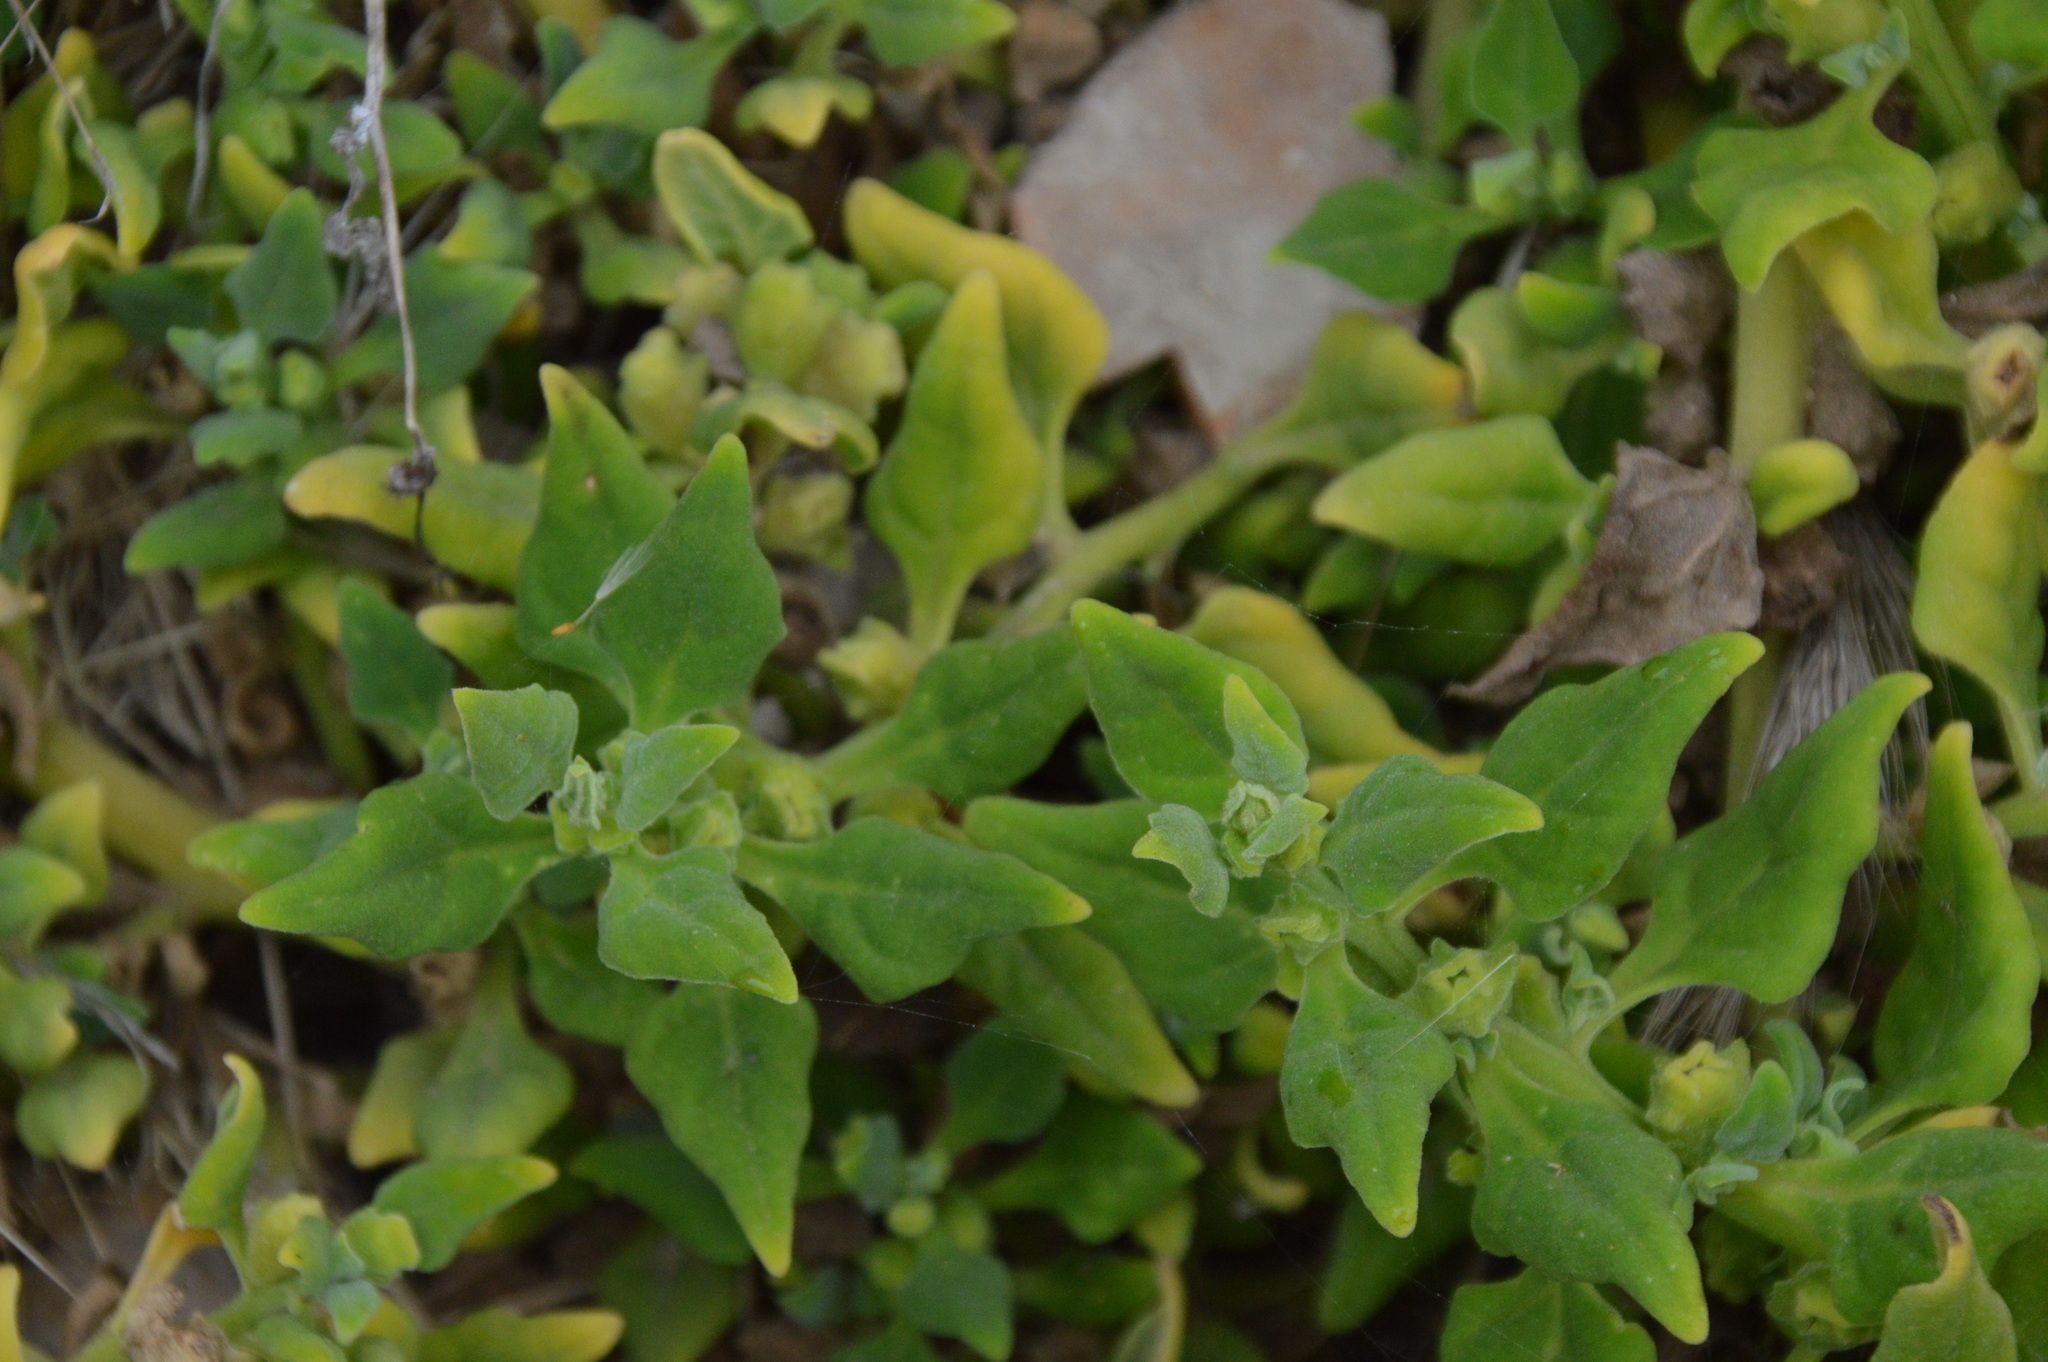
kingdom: Plantae
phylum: Tracheophyta
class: Magnoliopsida
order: Caryophyllales
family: Aizoaceae
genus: Tetragonia
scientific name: Tetragonia tetragonoides
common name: New zealand-spinach
